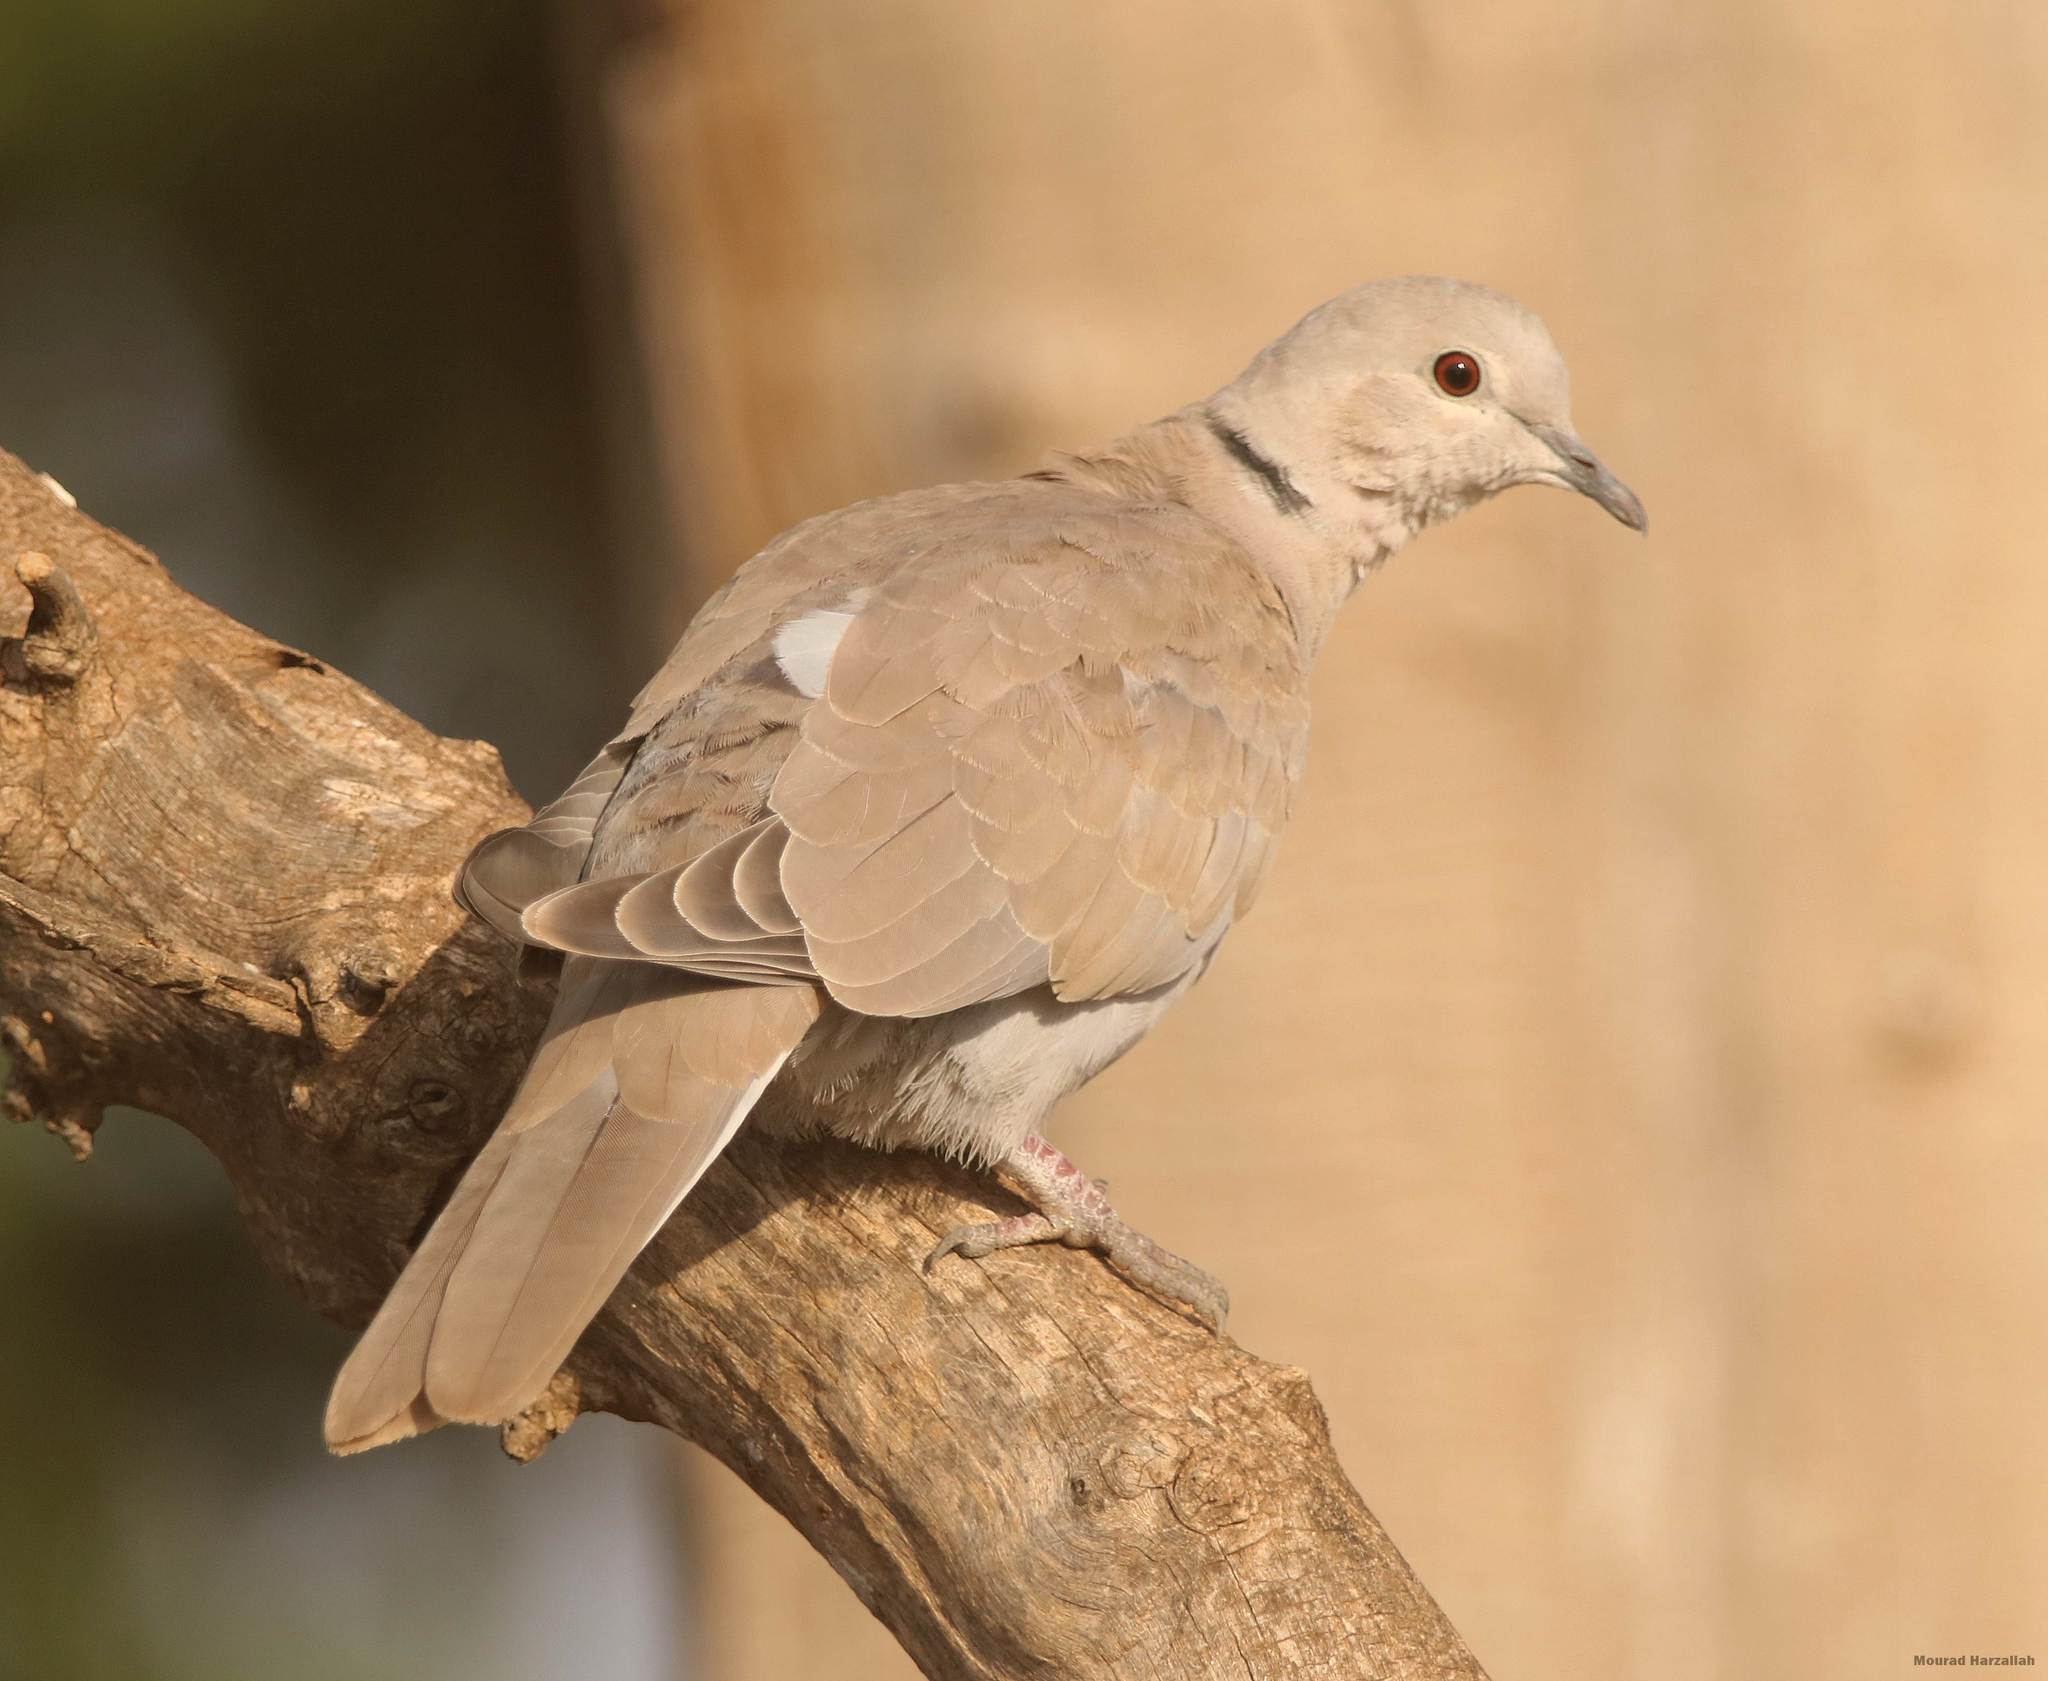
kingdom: Animalia
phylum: Chordata
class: Aves
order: Columbiformes
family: Columbidae
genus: Streptopelia
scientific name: Streptopelia decaocto
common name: Eurasian collared dove
